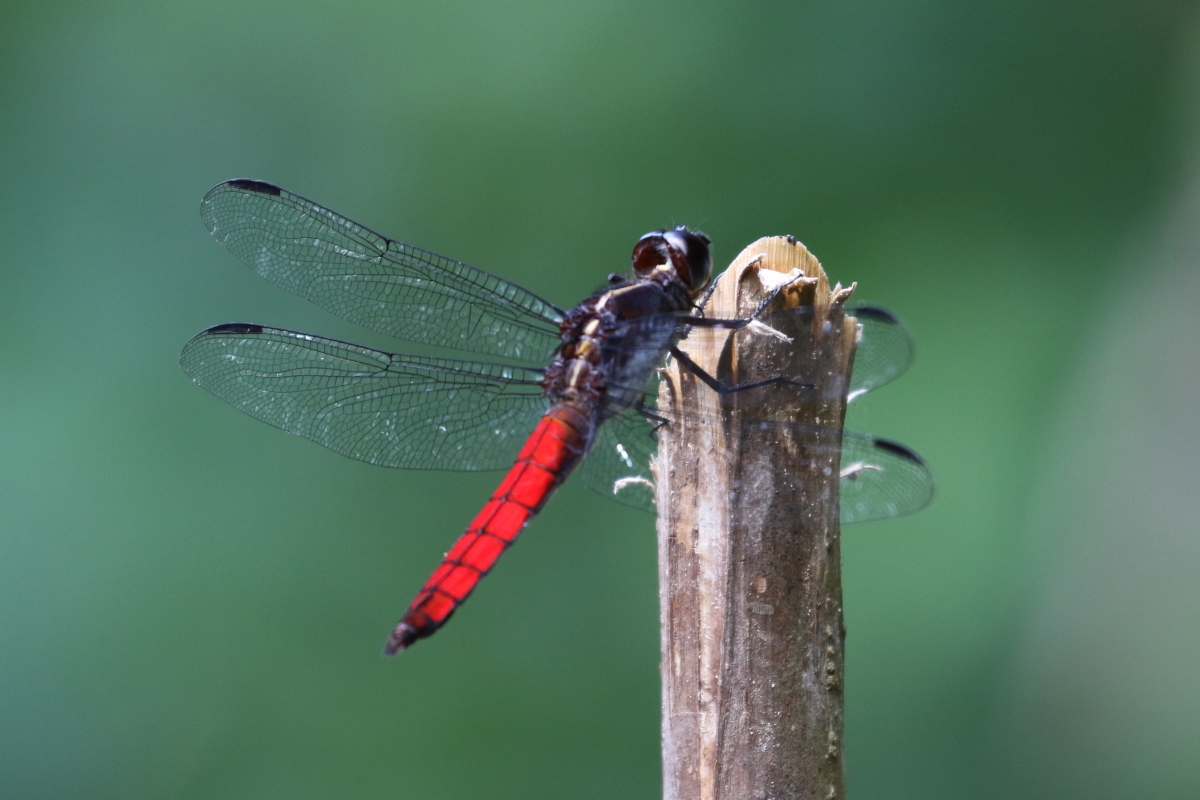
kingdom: Animalia
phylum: Arthropoda
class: Insecta
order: Odonata
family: Libellulidae
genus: Libellula
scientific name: Libellula herculea
